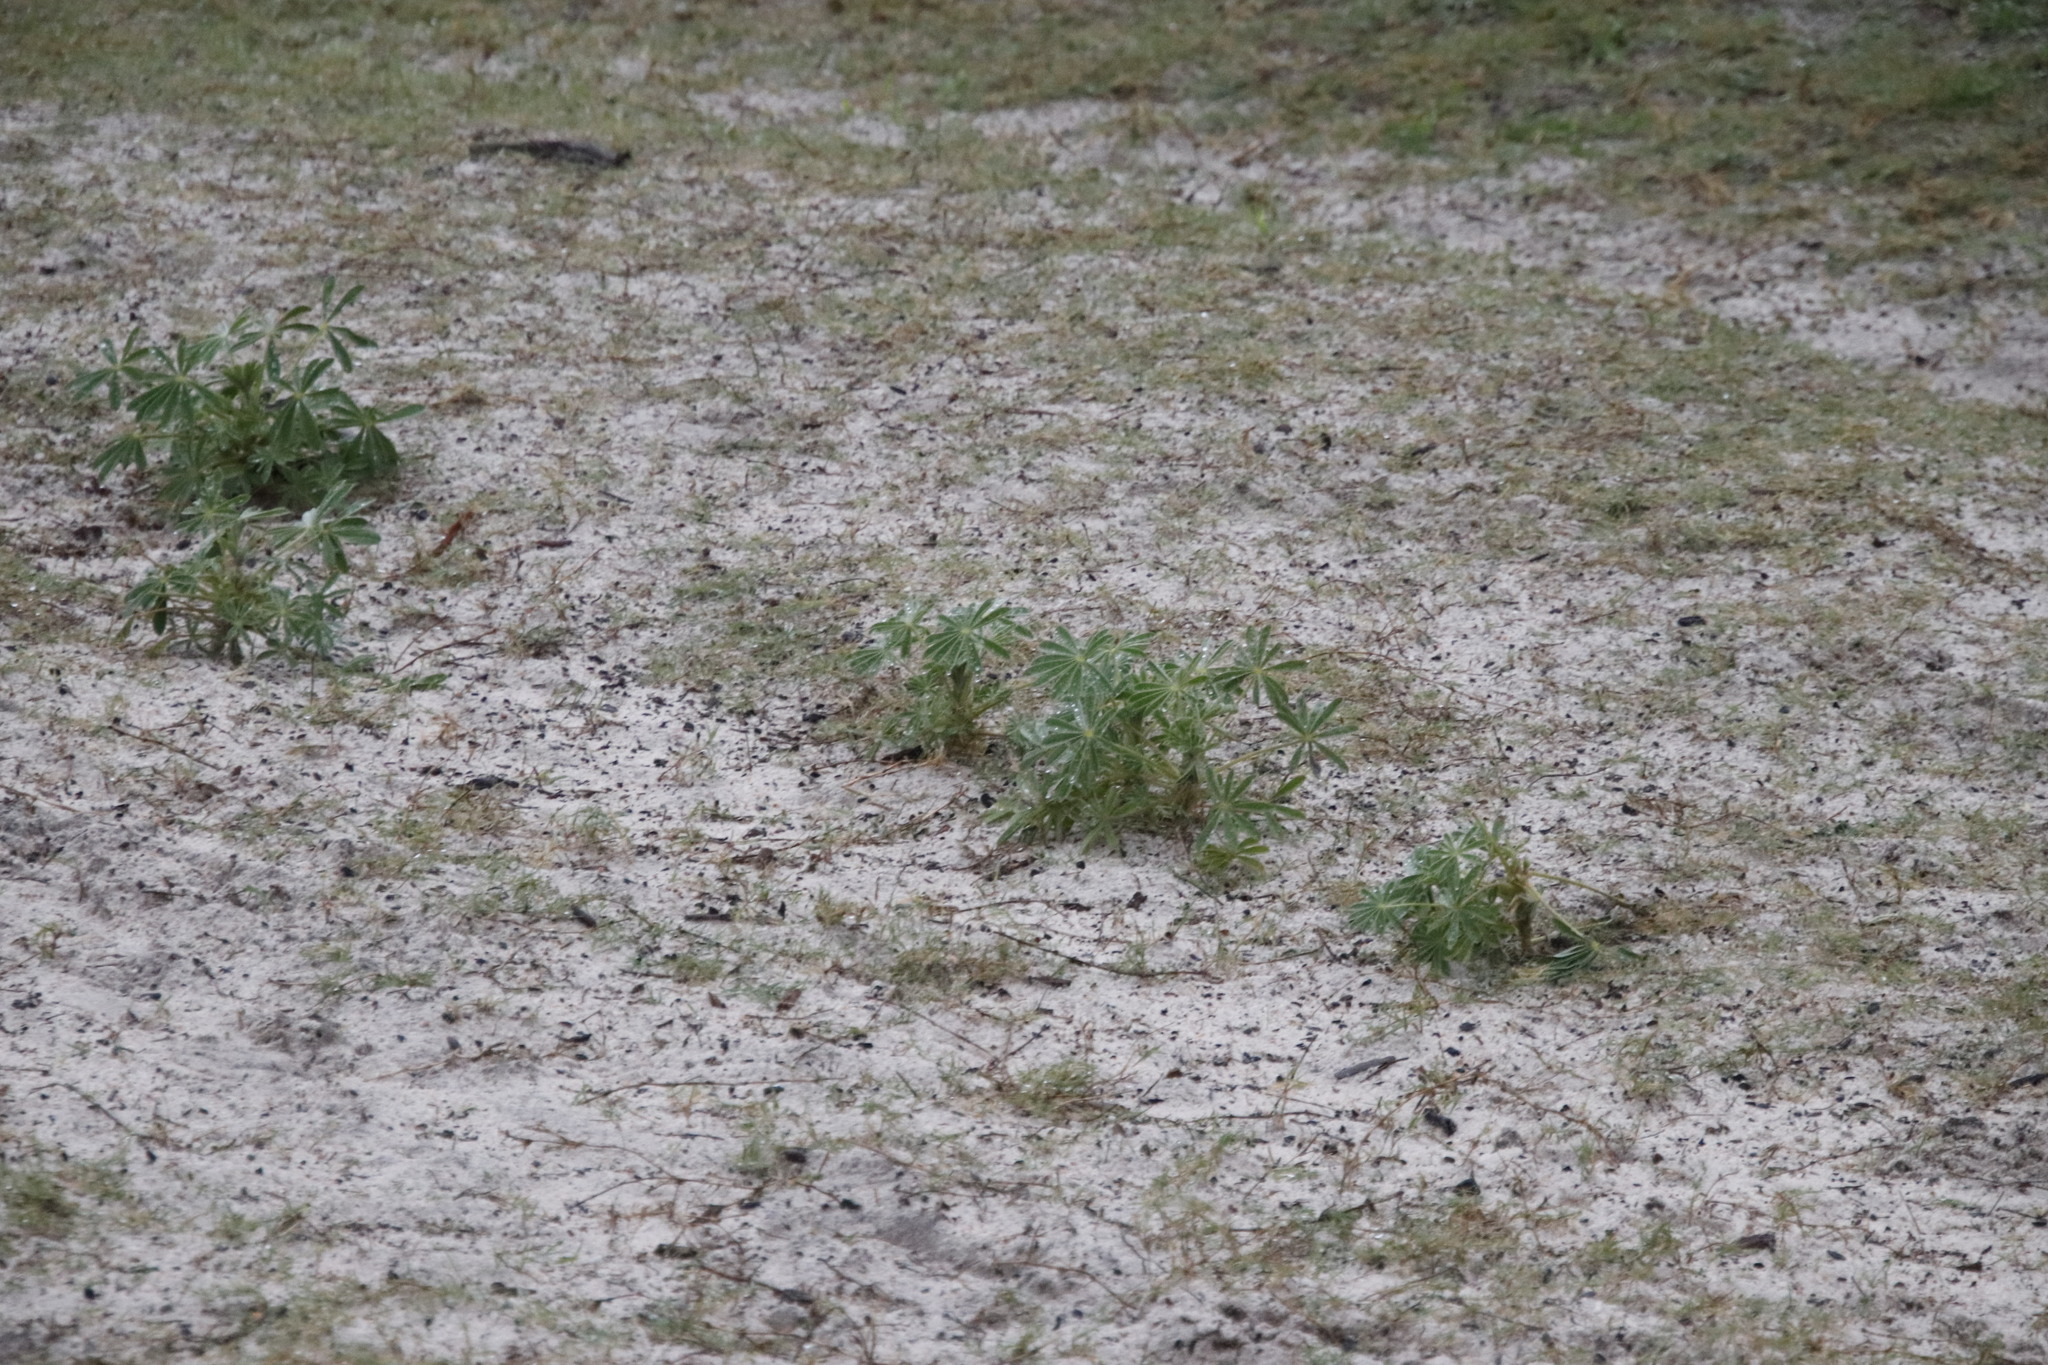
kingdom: Plantae
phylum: Tracheophyta
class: Magnoliopsida
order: Fabales
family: Fabaceae
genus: Lupinus
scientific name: Lupinus cosentinii
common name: Hairy blue lupin
